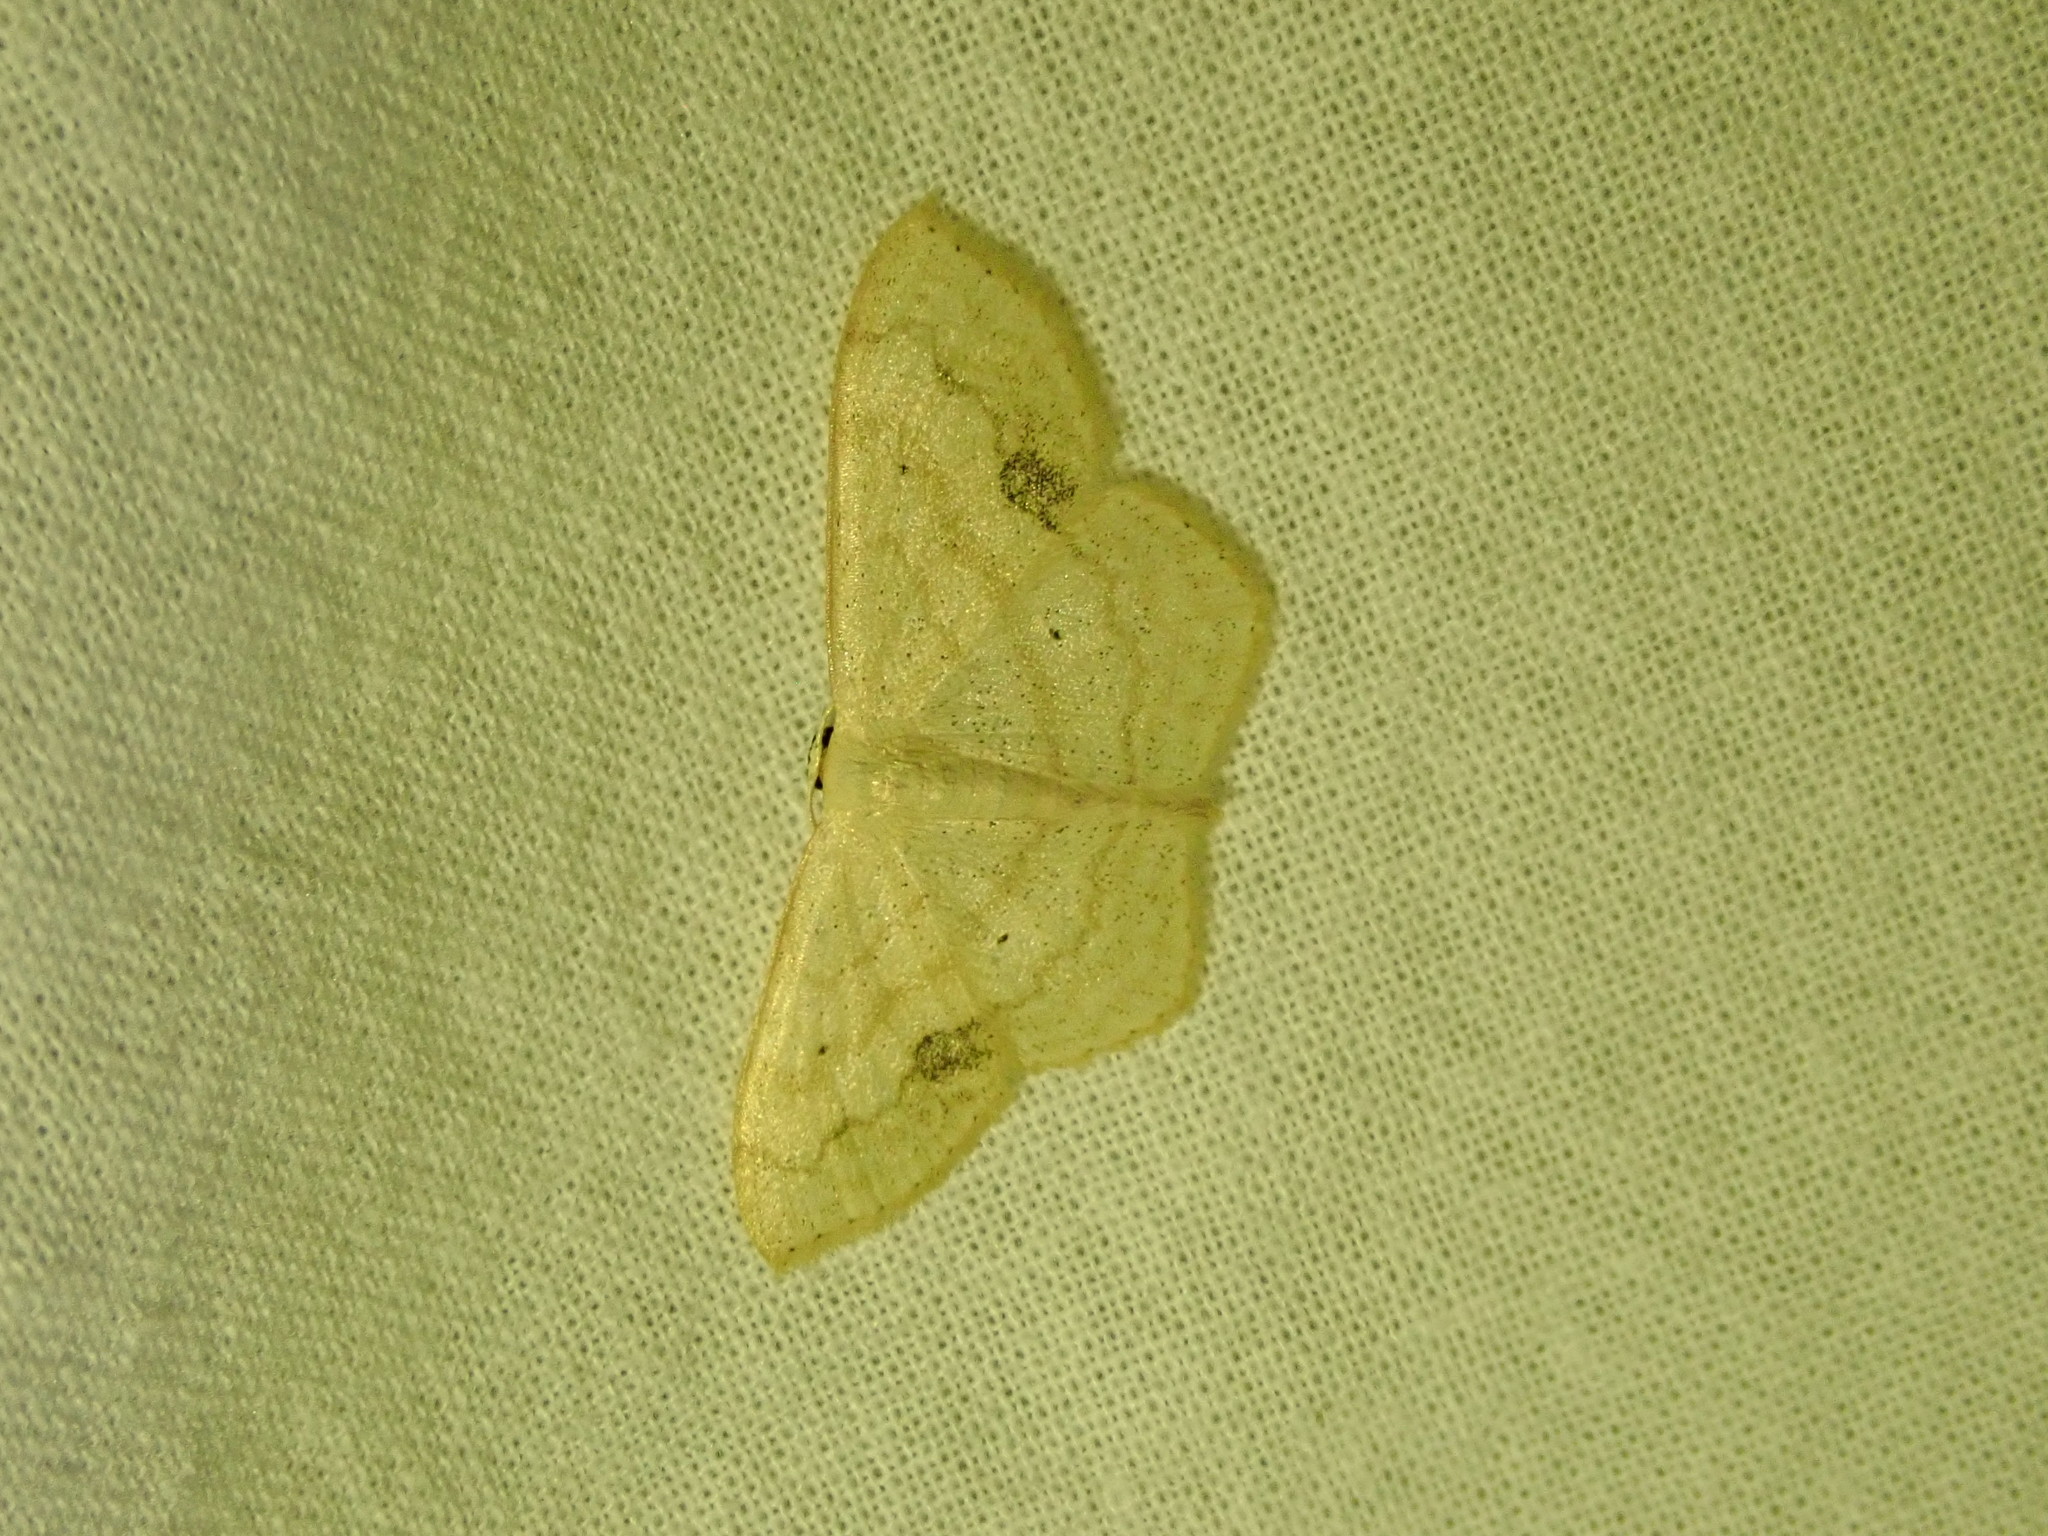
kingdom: Animalia
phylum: Arthropoda
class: Insecta
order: Lepidoptera
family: Geometridae
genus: Scopula
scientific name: Scopula limboundata
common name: Large lace border
